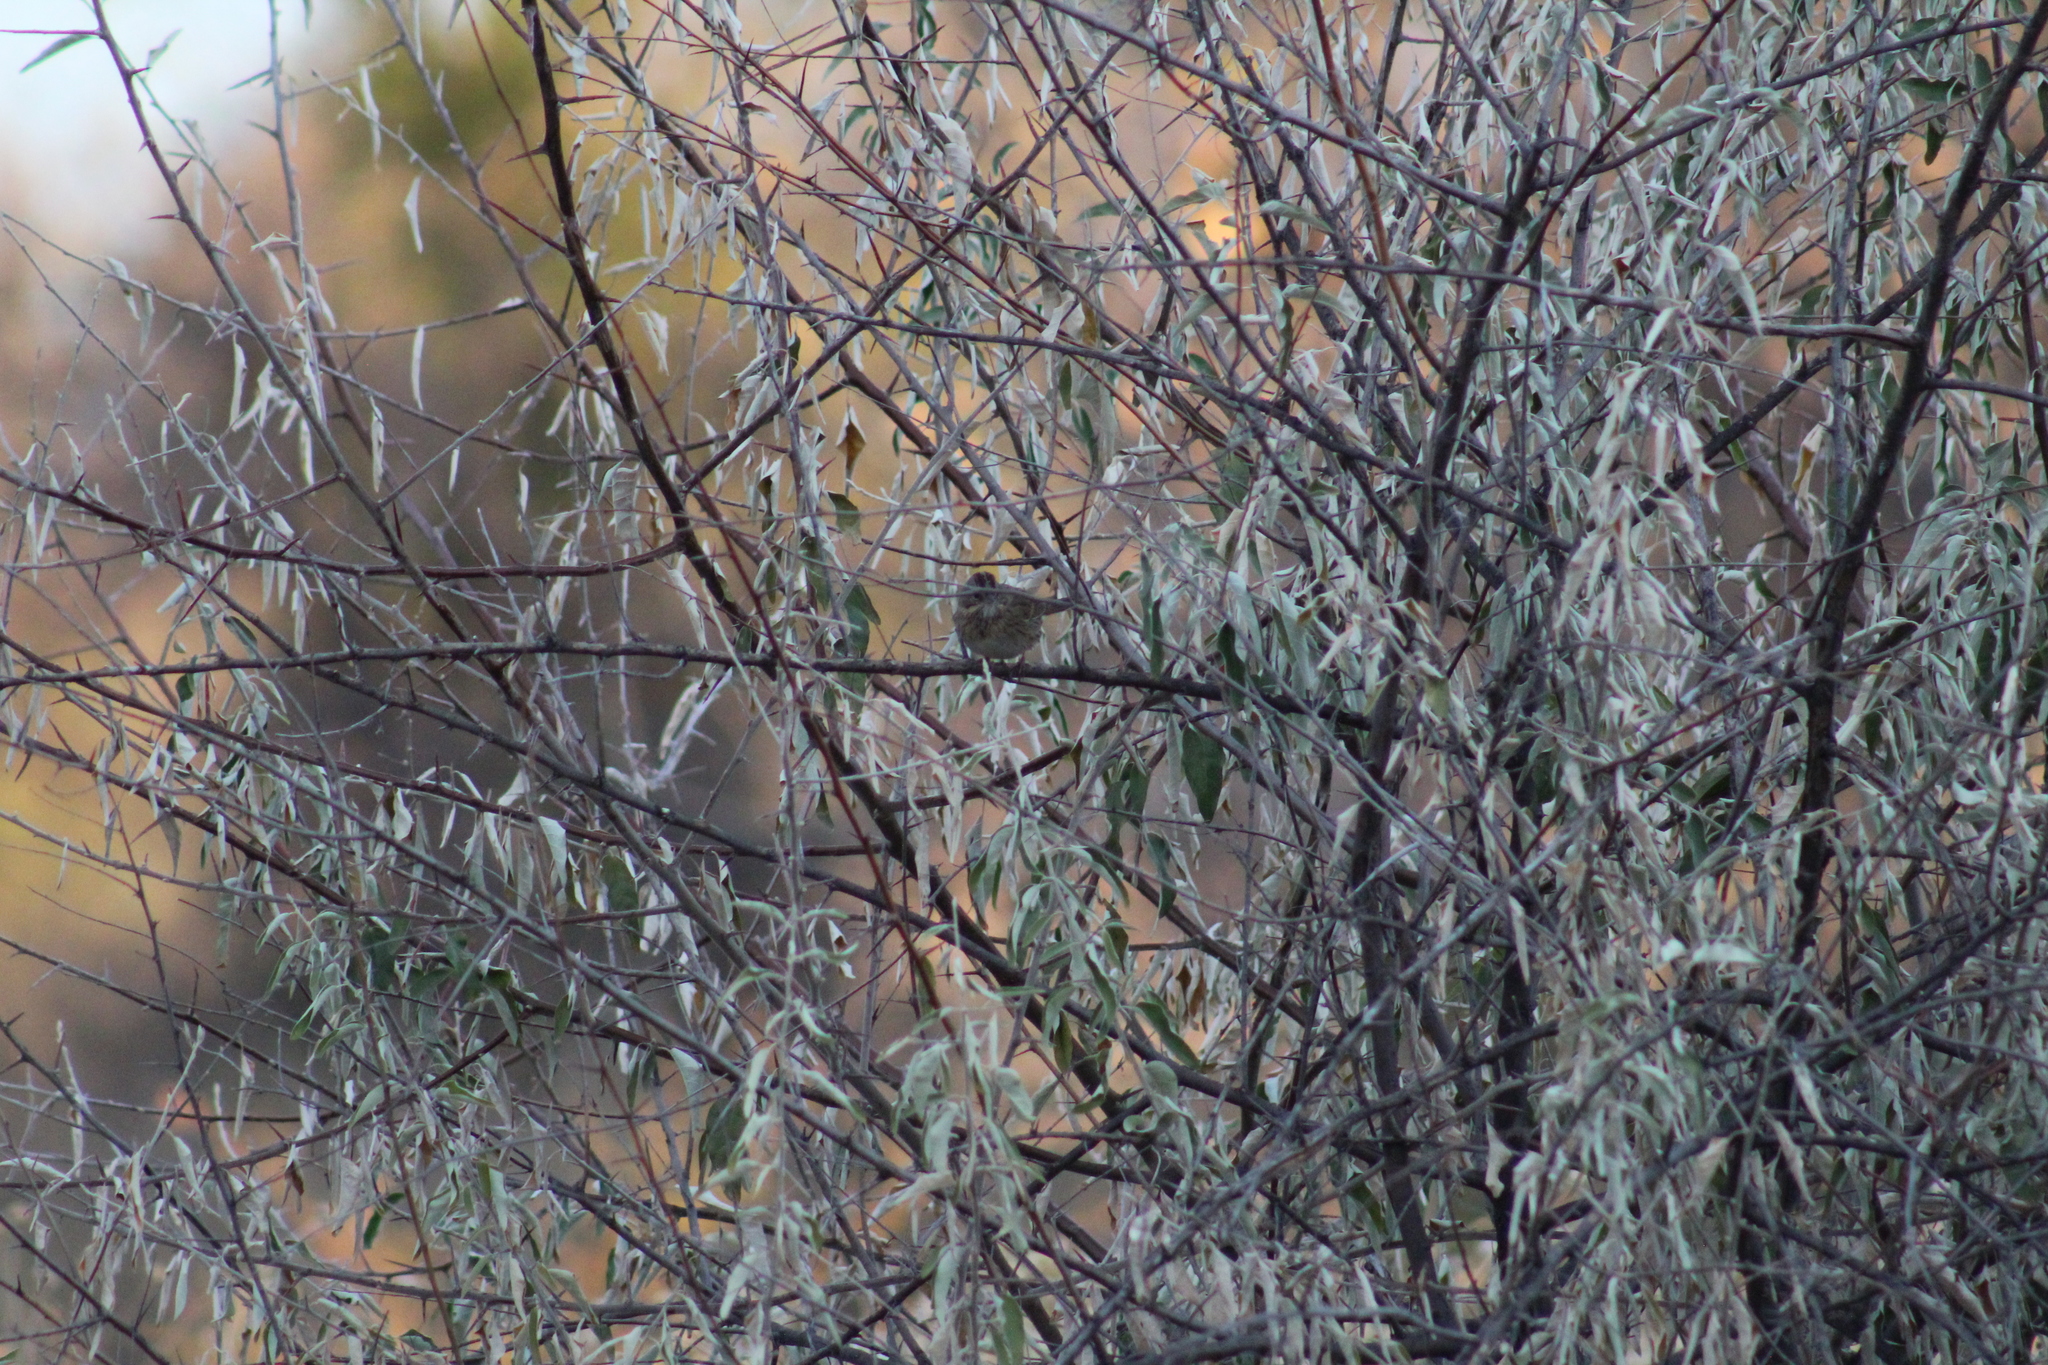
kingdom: Animalia
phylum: Chordata
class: Aves
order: Passeriformes
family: Passerellidae
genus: Melospiza
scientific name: Melospiza lincolnii
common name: Lincoln's sparrow
